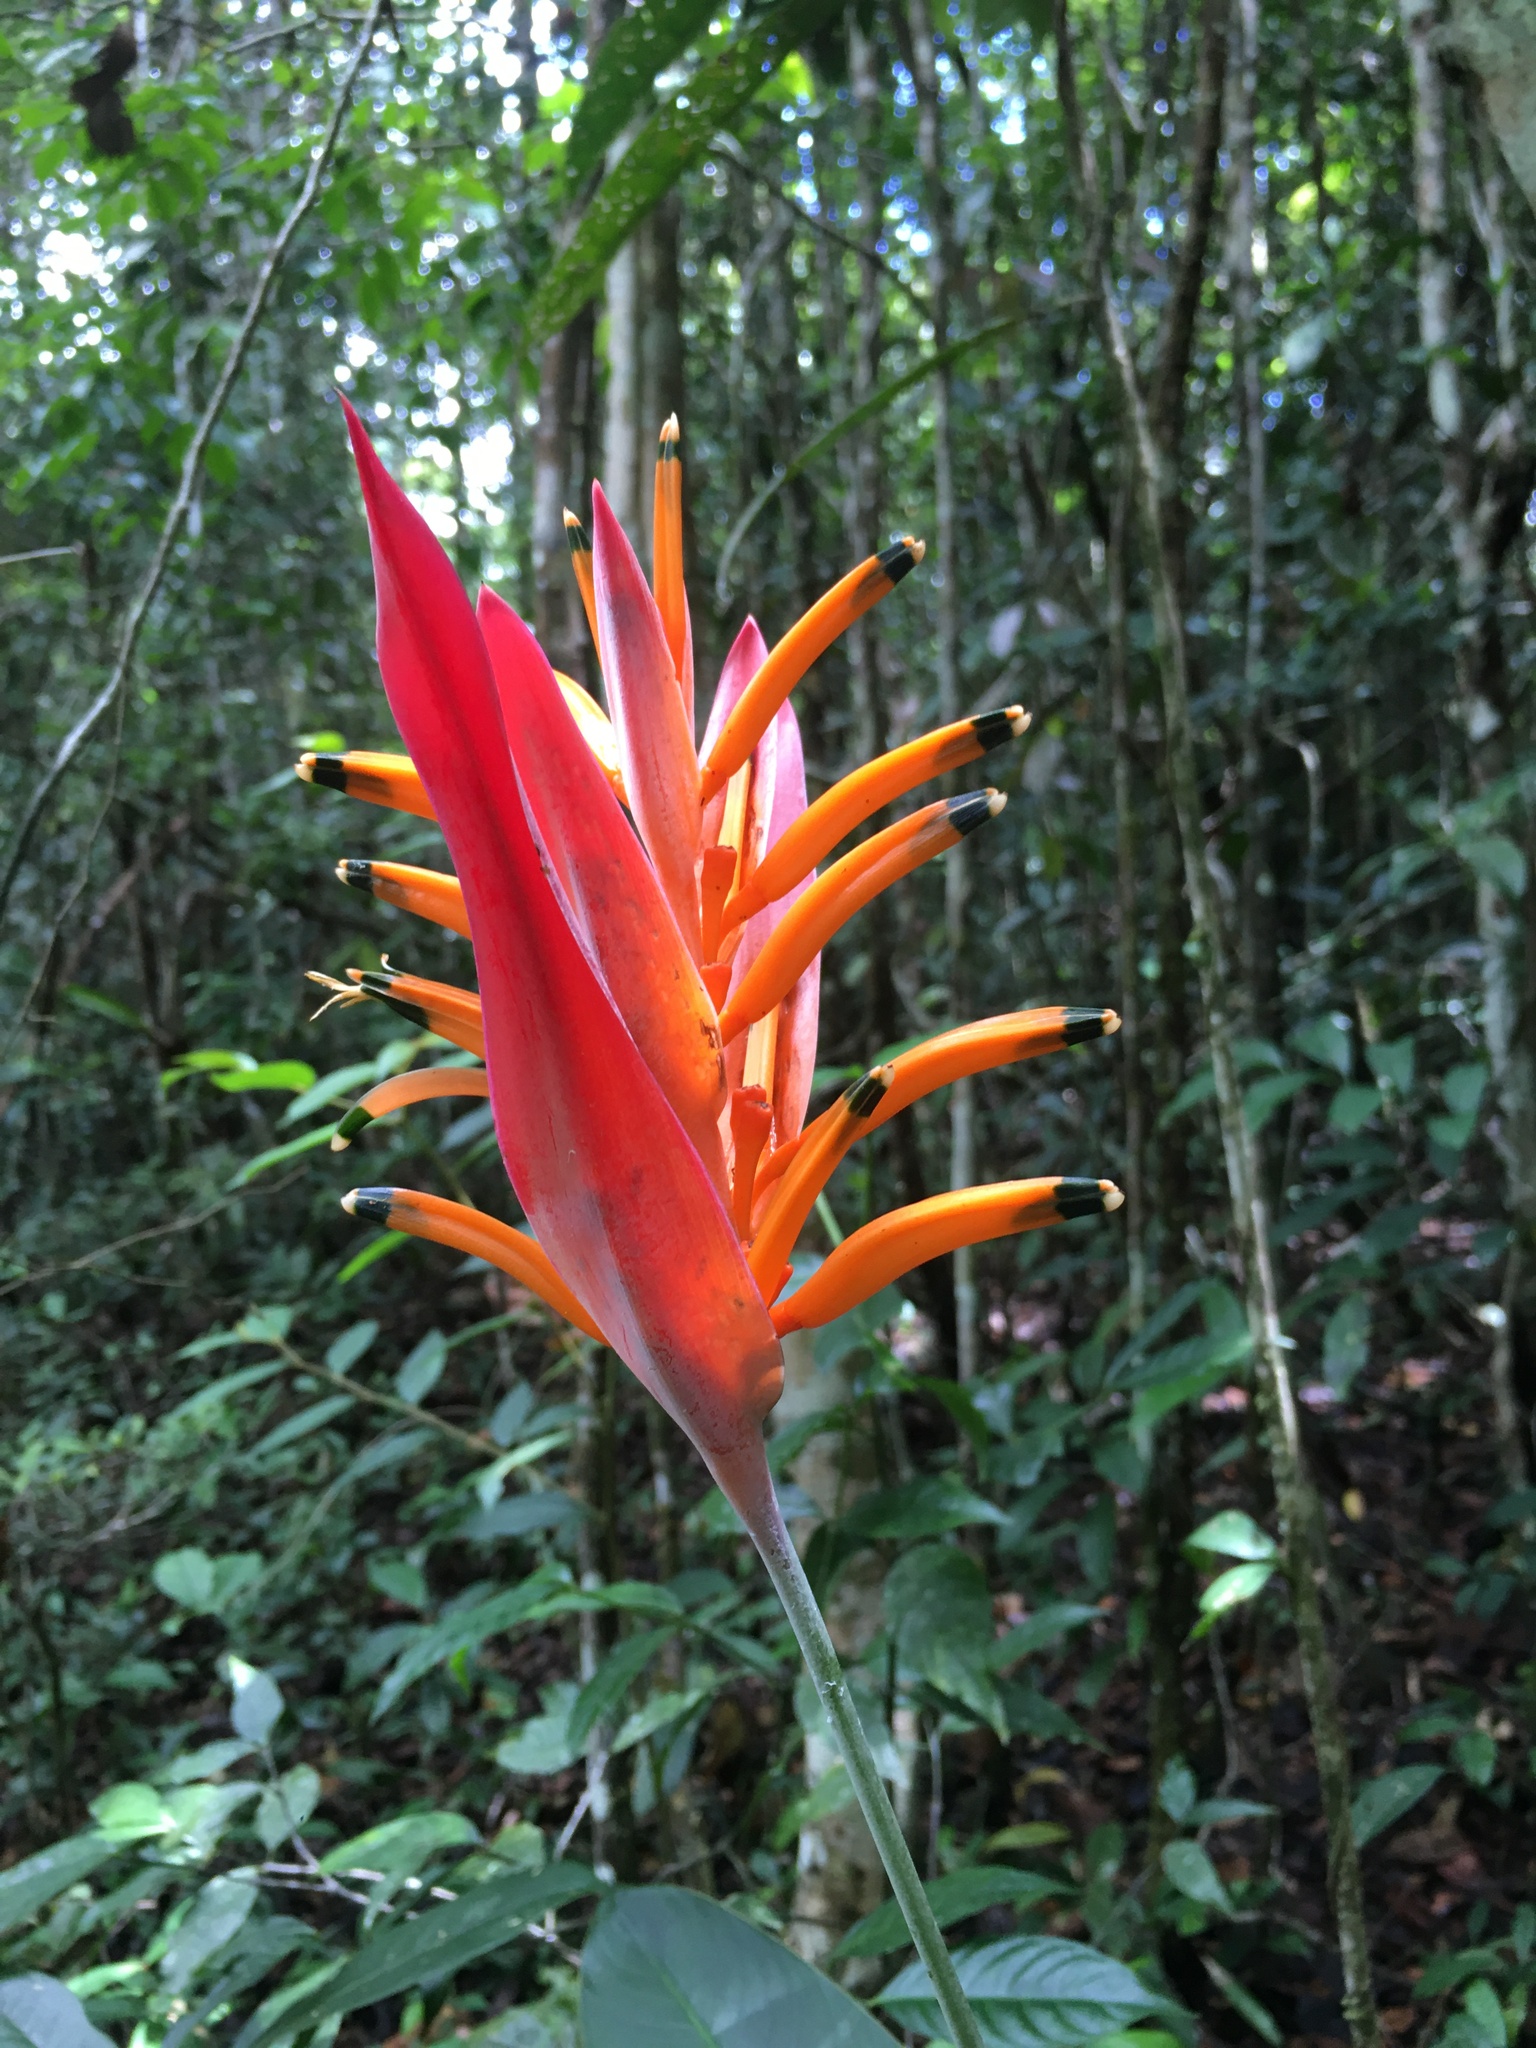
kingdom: Plantae
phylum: Tracheophyta
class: Liliopsida
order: Zingiberales
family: Heliconiaceae
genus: Heliconia
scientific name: Heliconia psittacorum
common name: Parrot's-flower
